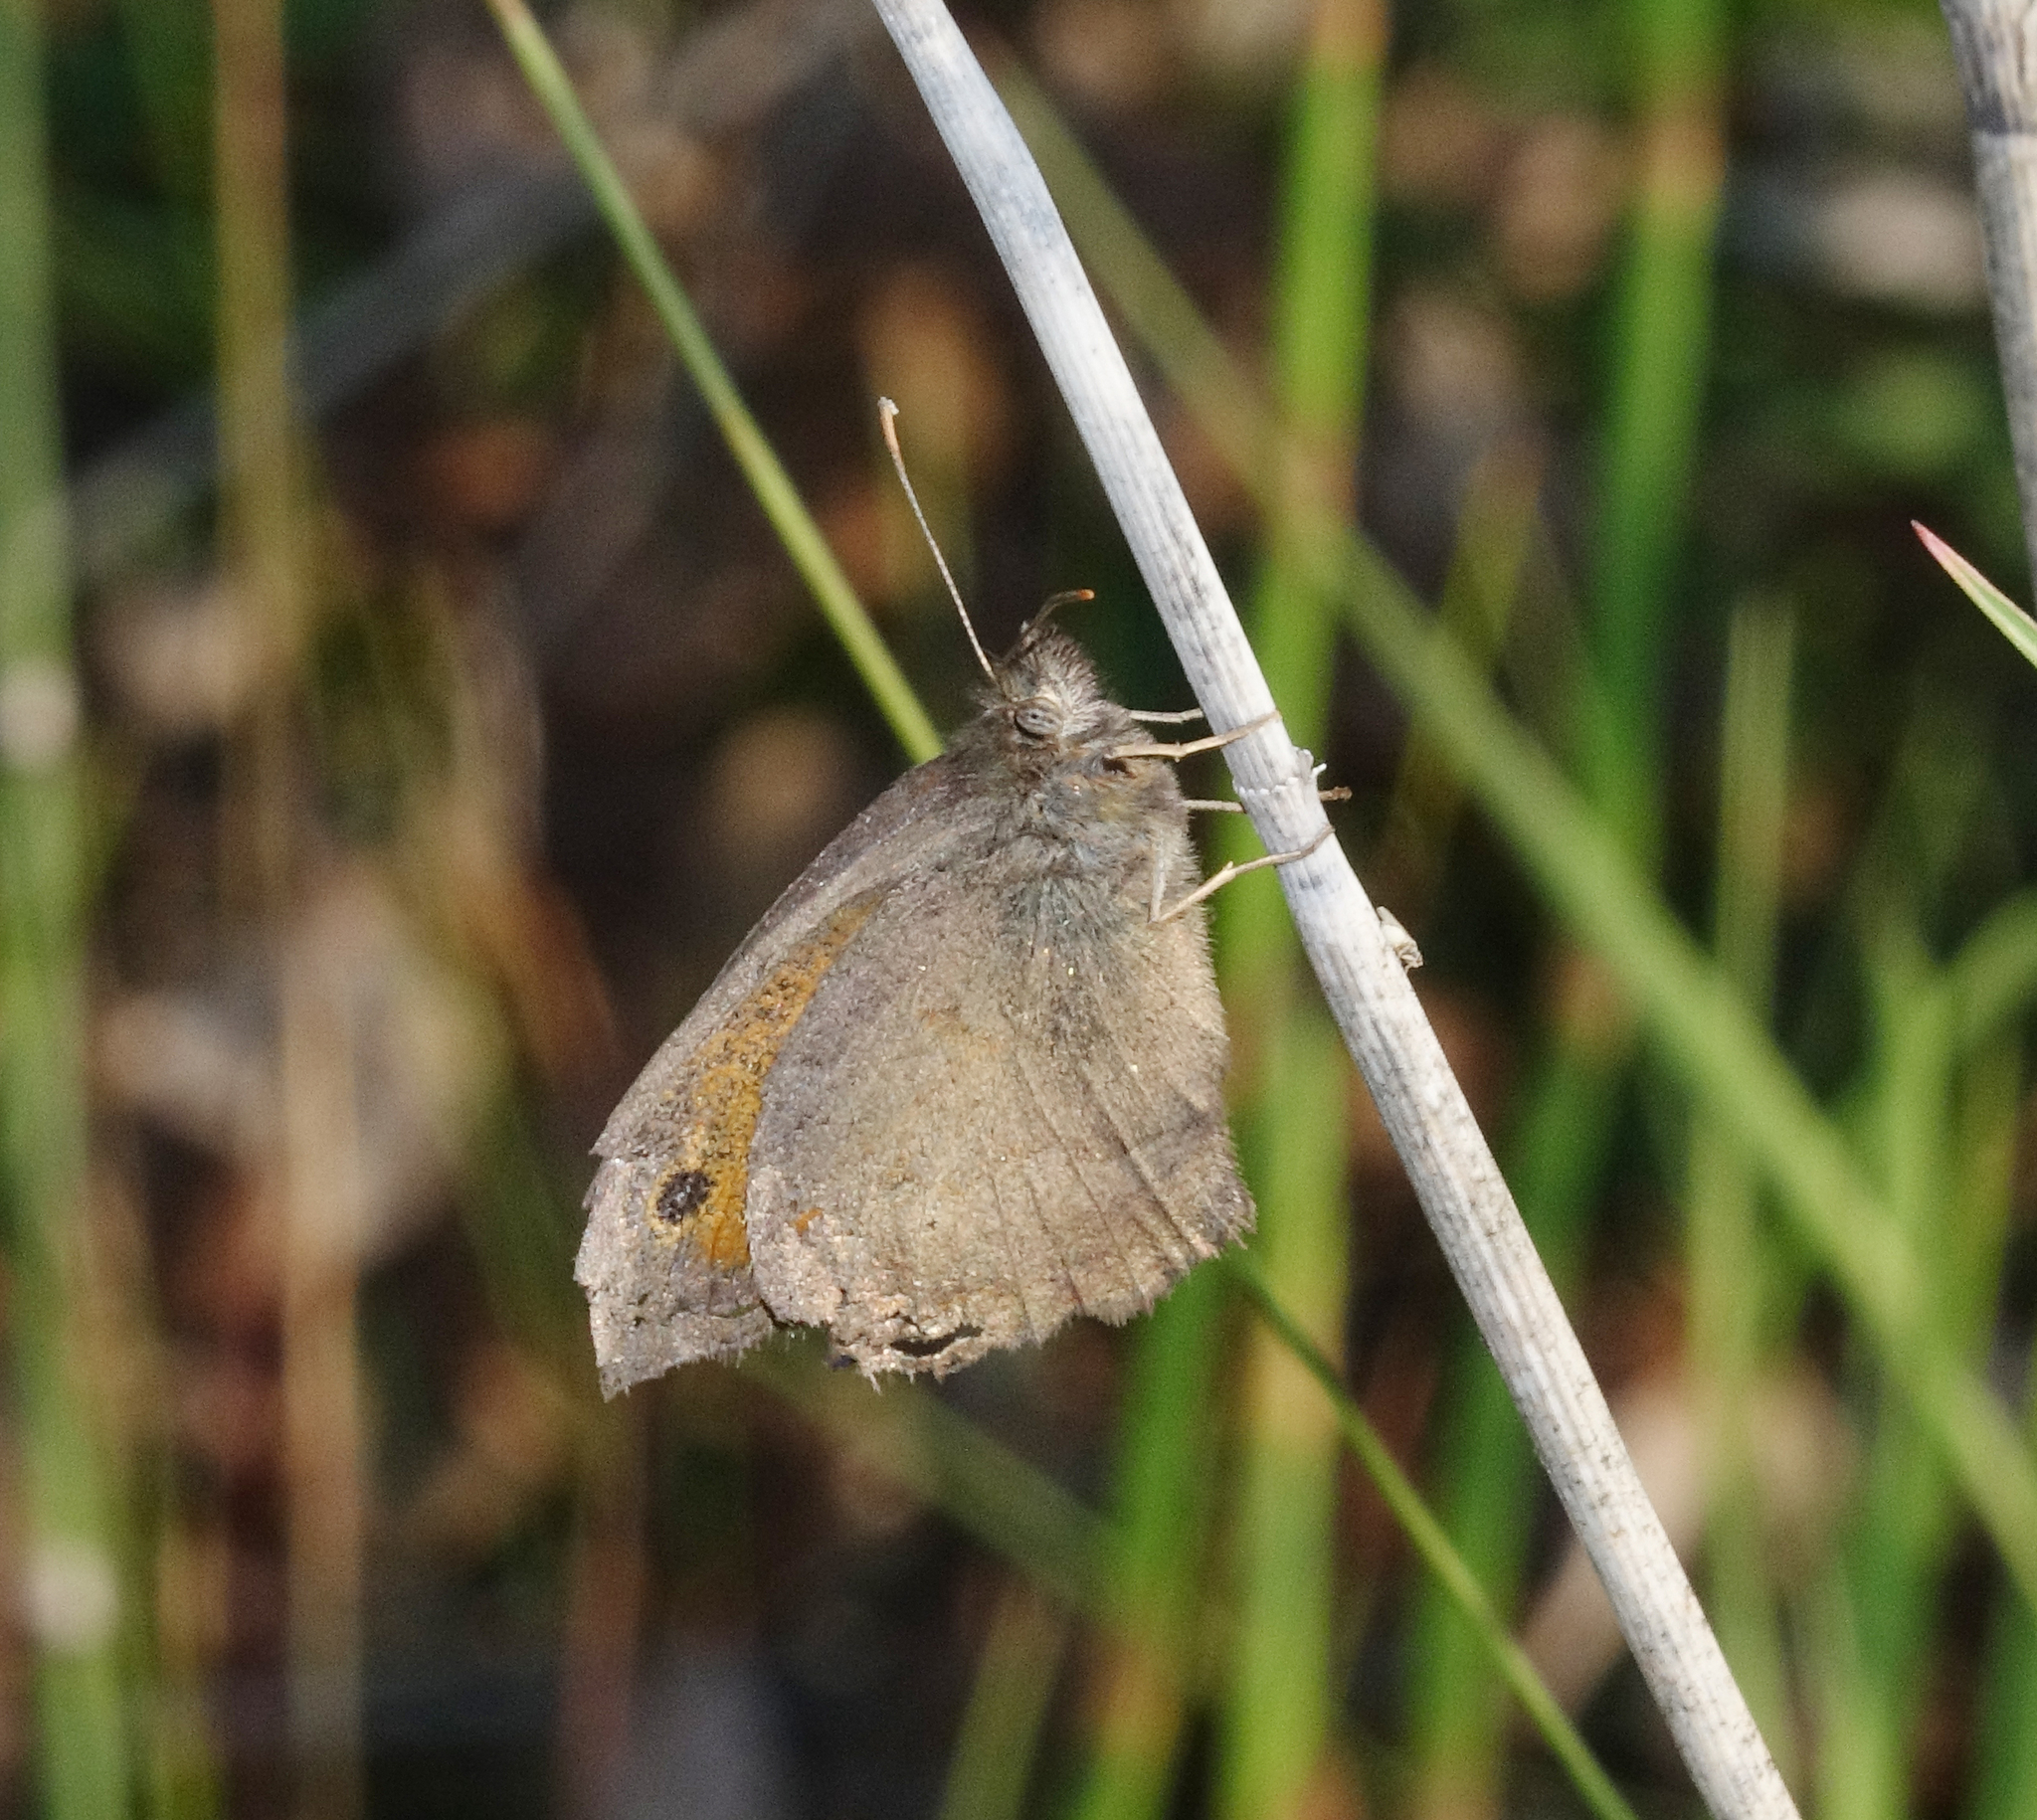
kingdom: Animalia
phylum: Arthropoda
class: Insecta
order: Lepidoptera
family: Nymphalidae
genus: Hyponephele
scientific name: Hyponephele lycaon
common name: Dusky meadow brown
